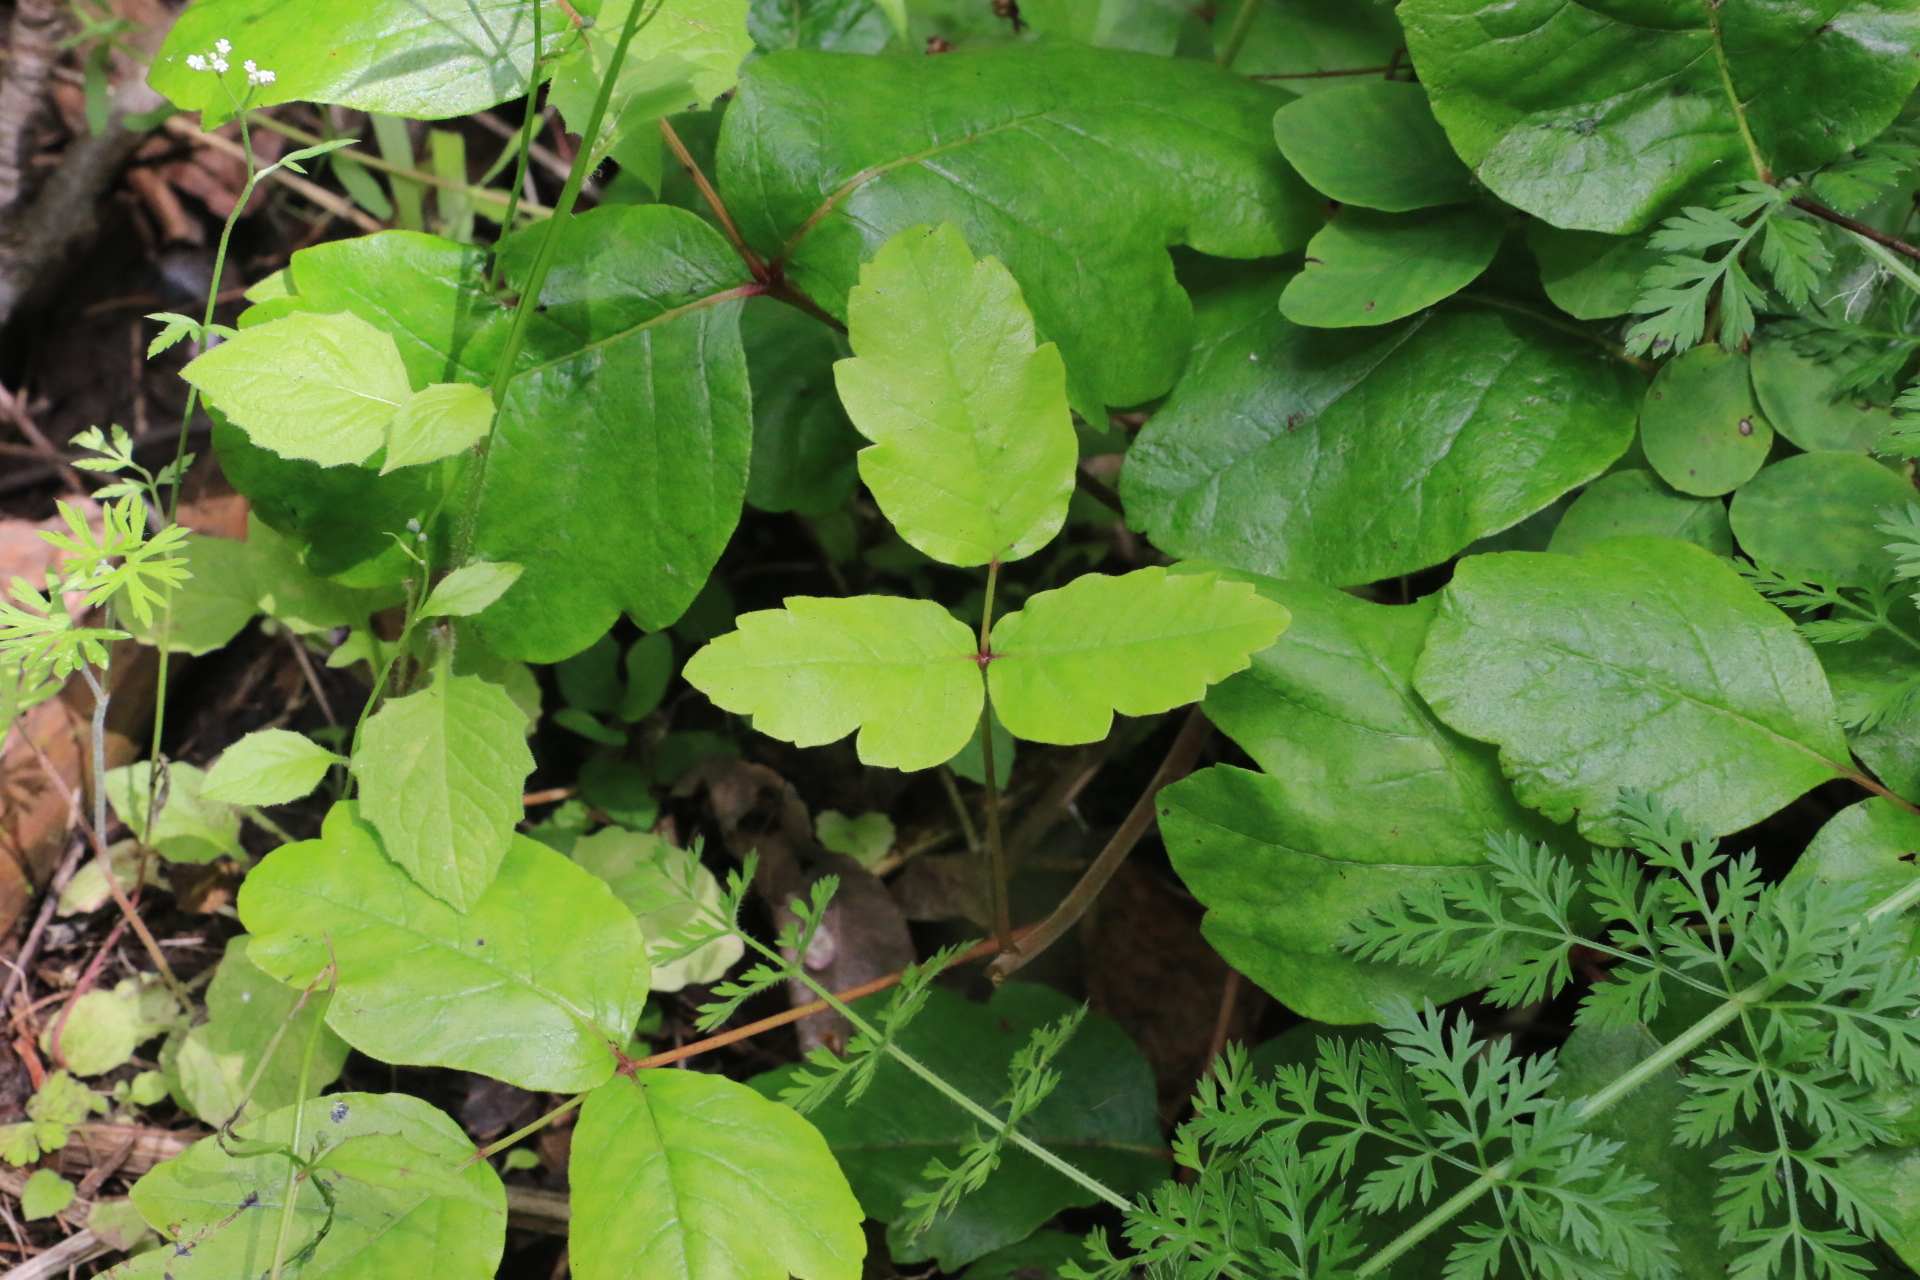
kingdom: Plantae
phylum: Tracheophyta
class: Magnoliopsida
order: Sapindales
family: Anacardiaceae
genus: Toxicodendron
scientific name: Toxicodendron diversilobum
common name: Pacific poison-oak
